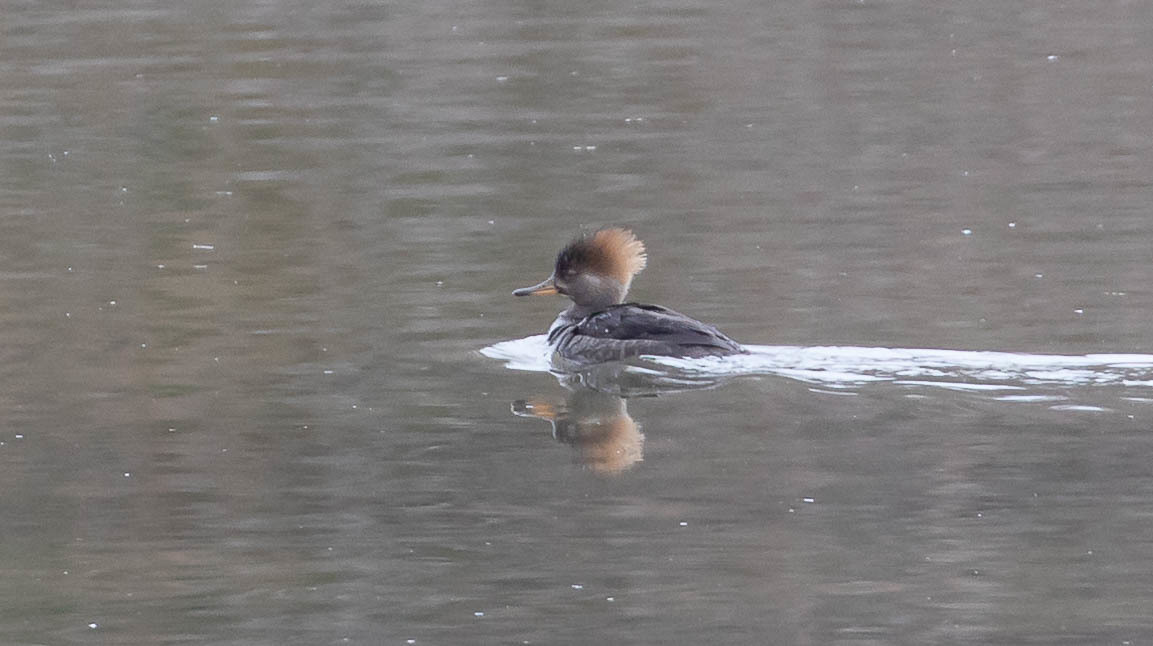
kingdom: Animalia
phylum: Chordata
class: Aves
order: Anseriformes
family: Anatidae
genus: Lophodytes
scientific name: Lophodytes cucullatus
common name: Hooded merganser
